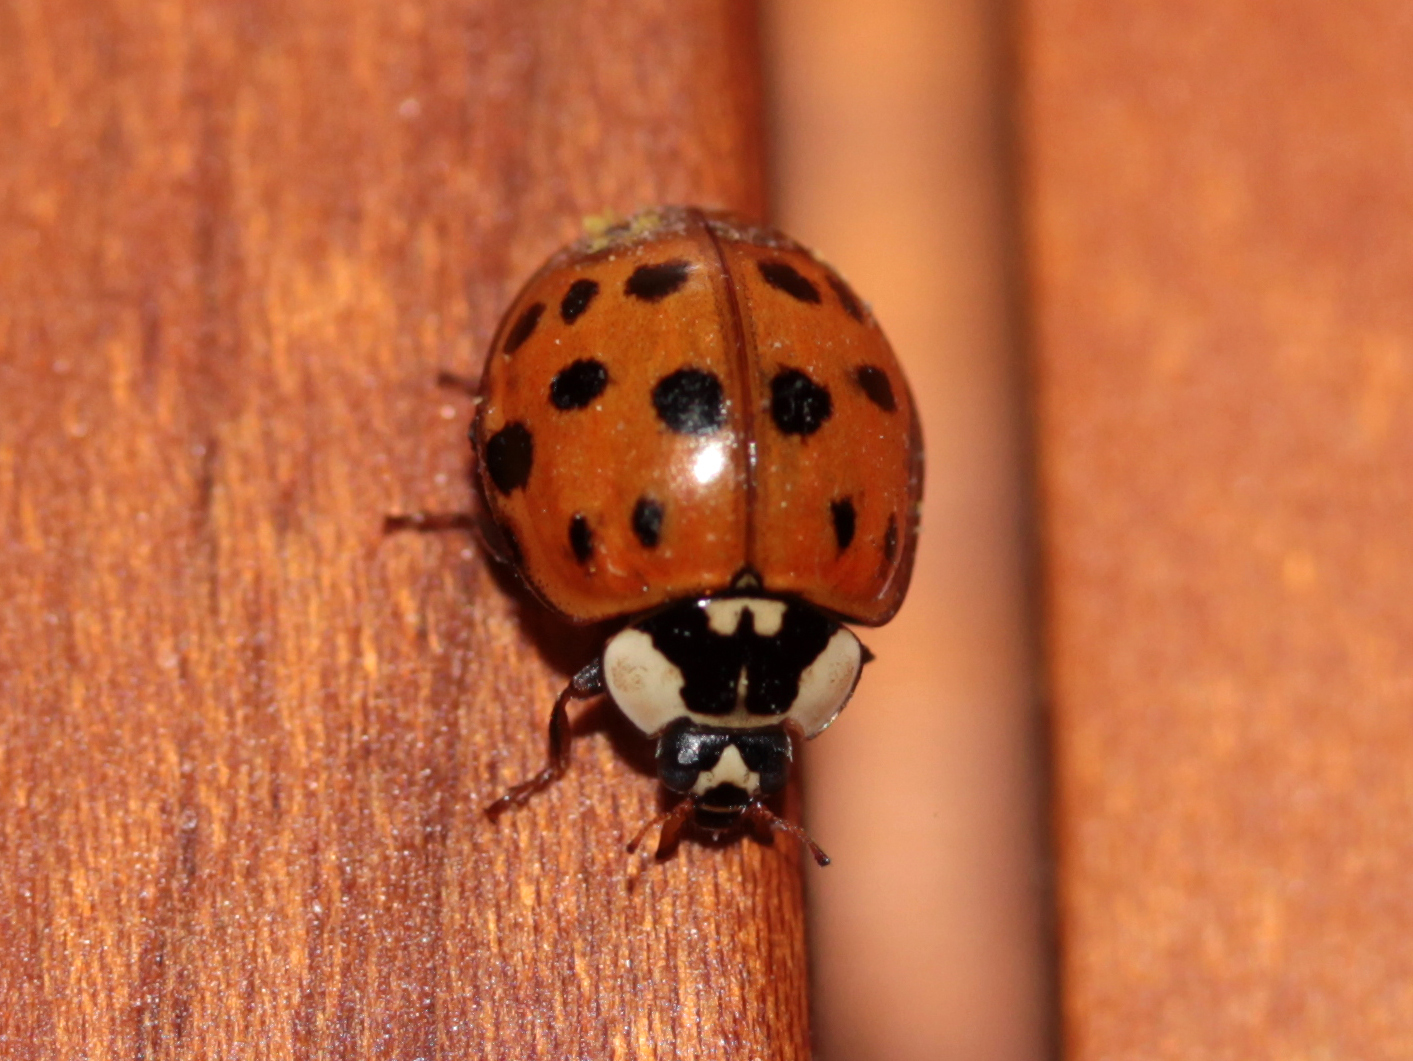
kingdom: Animalia
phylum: Arthropoda
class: Insecta
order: Coleoptera
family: Coccinellidae
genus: Harmonia
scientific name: Harmonia axyridis
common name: Harlequin ladybird
